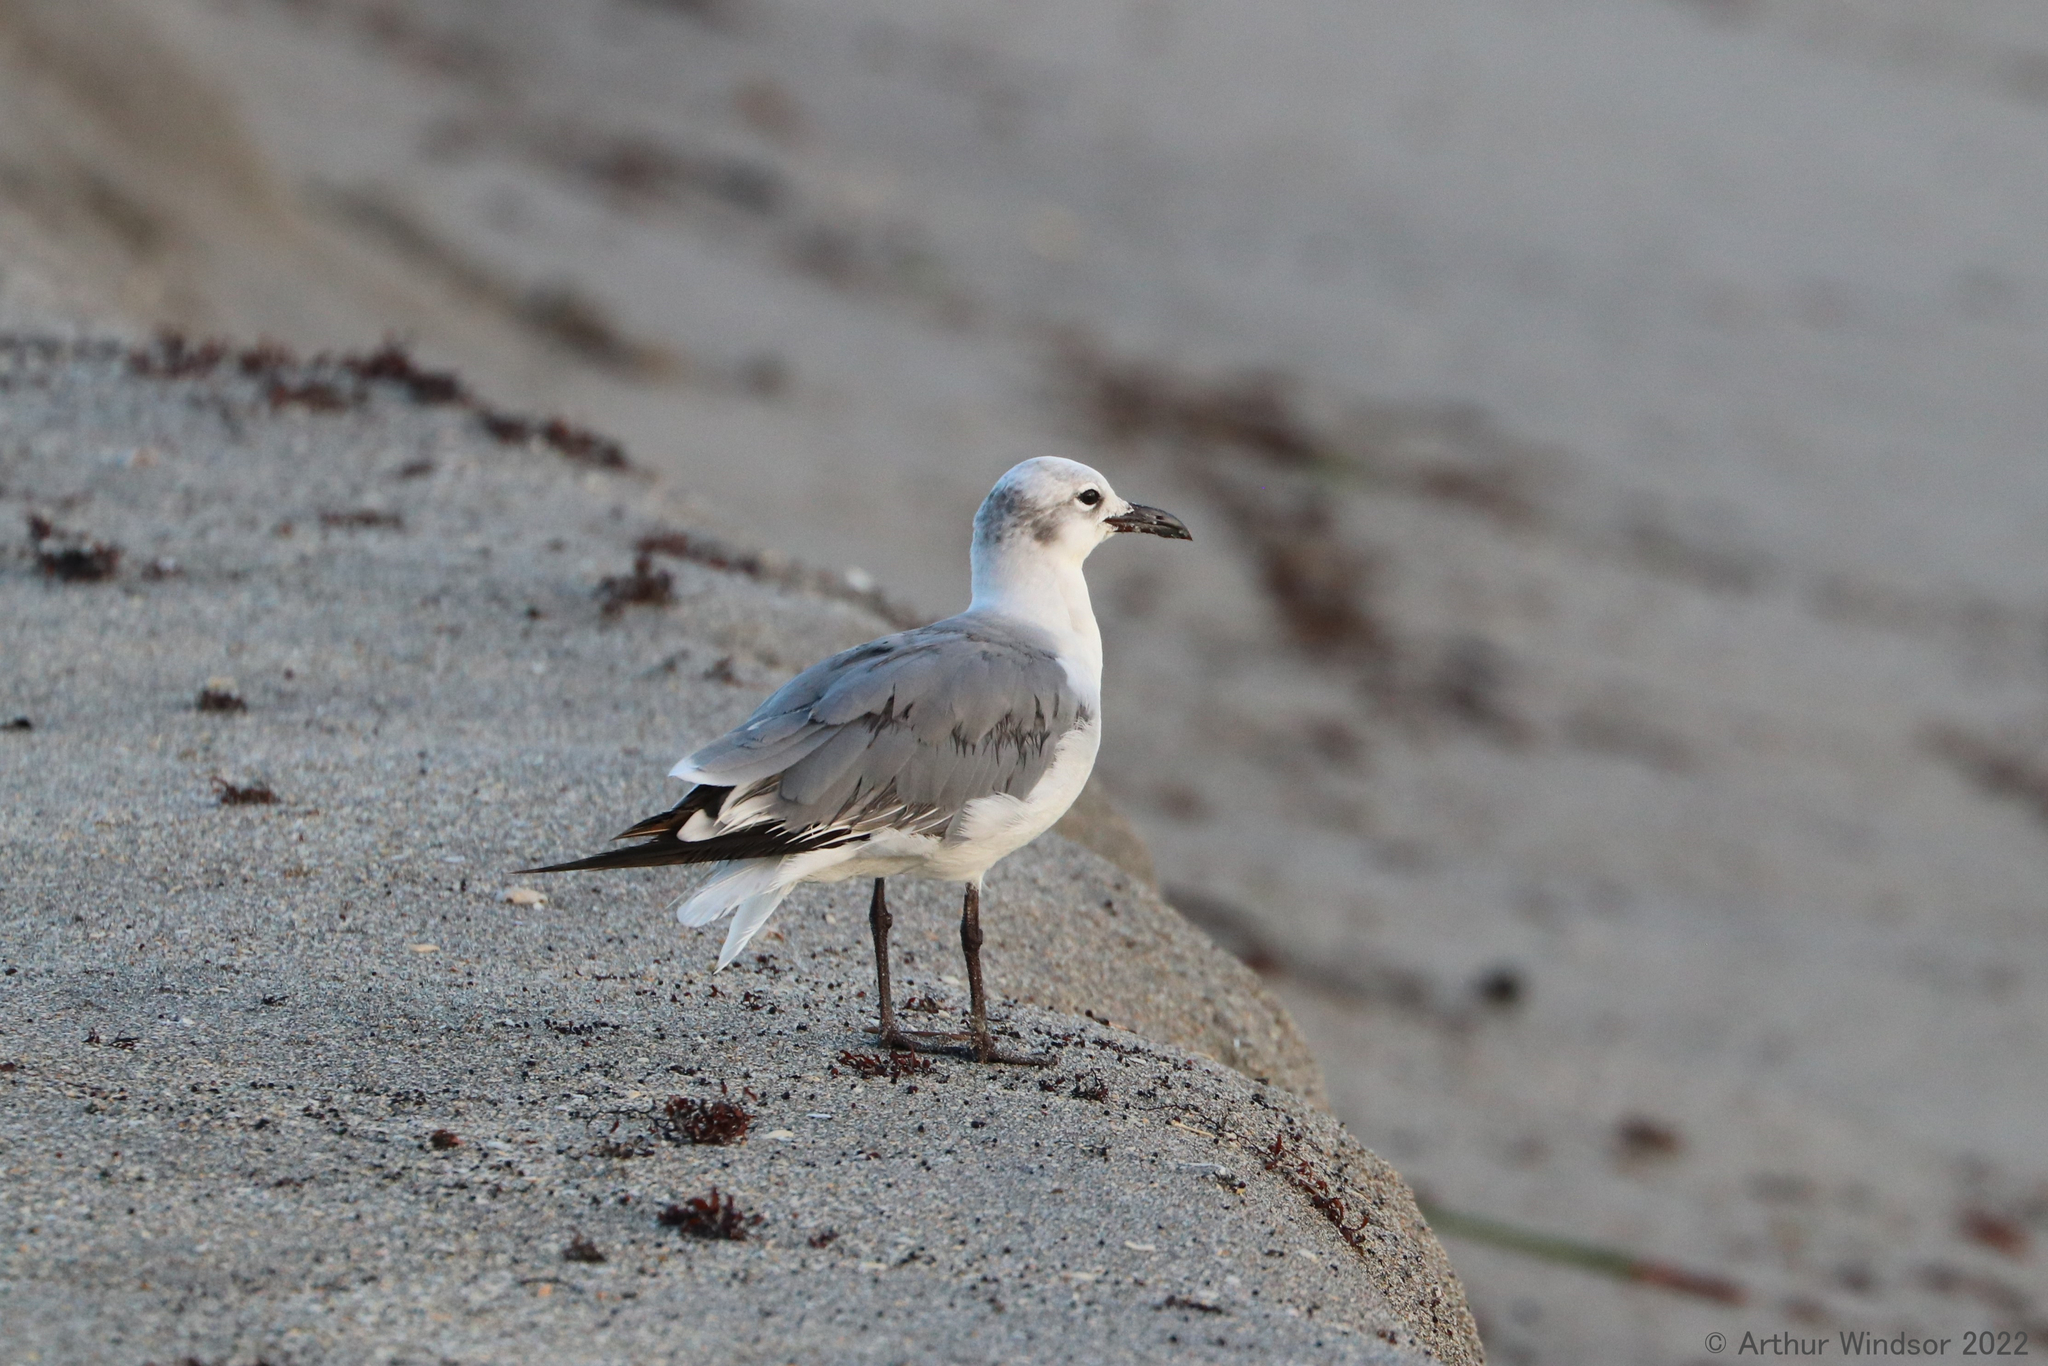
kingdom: Animalia
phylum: Chordata
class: Aves
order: Charadriiformes
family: Laridae
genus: Leucophaeus
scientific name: Leucophaeus atricilla
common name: Laughing gull
